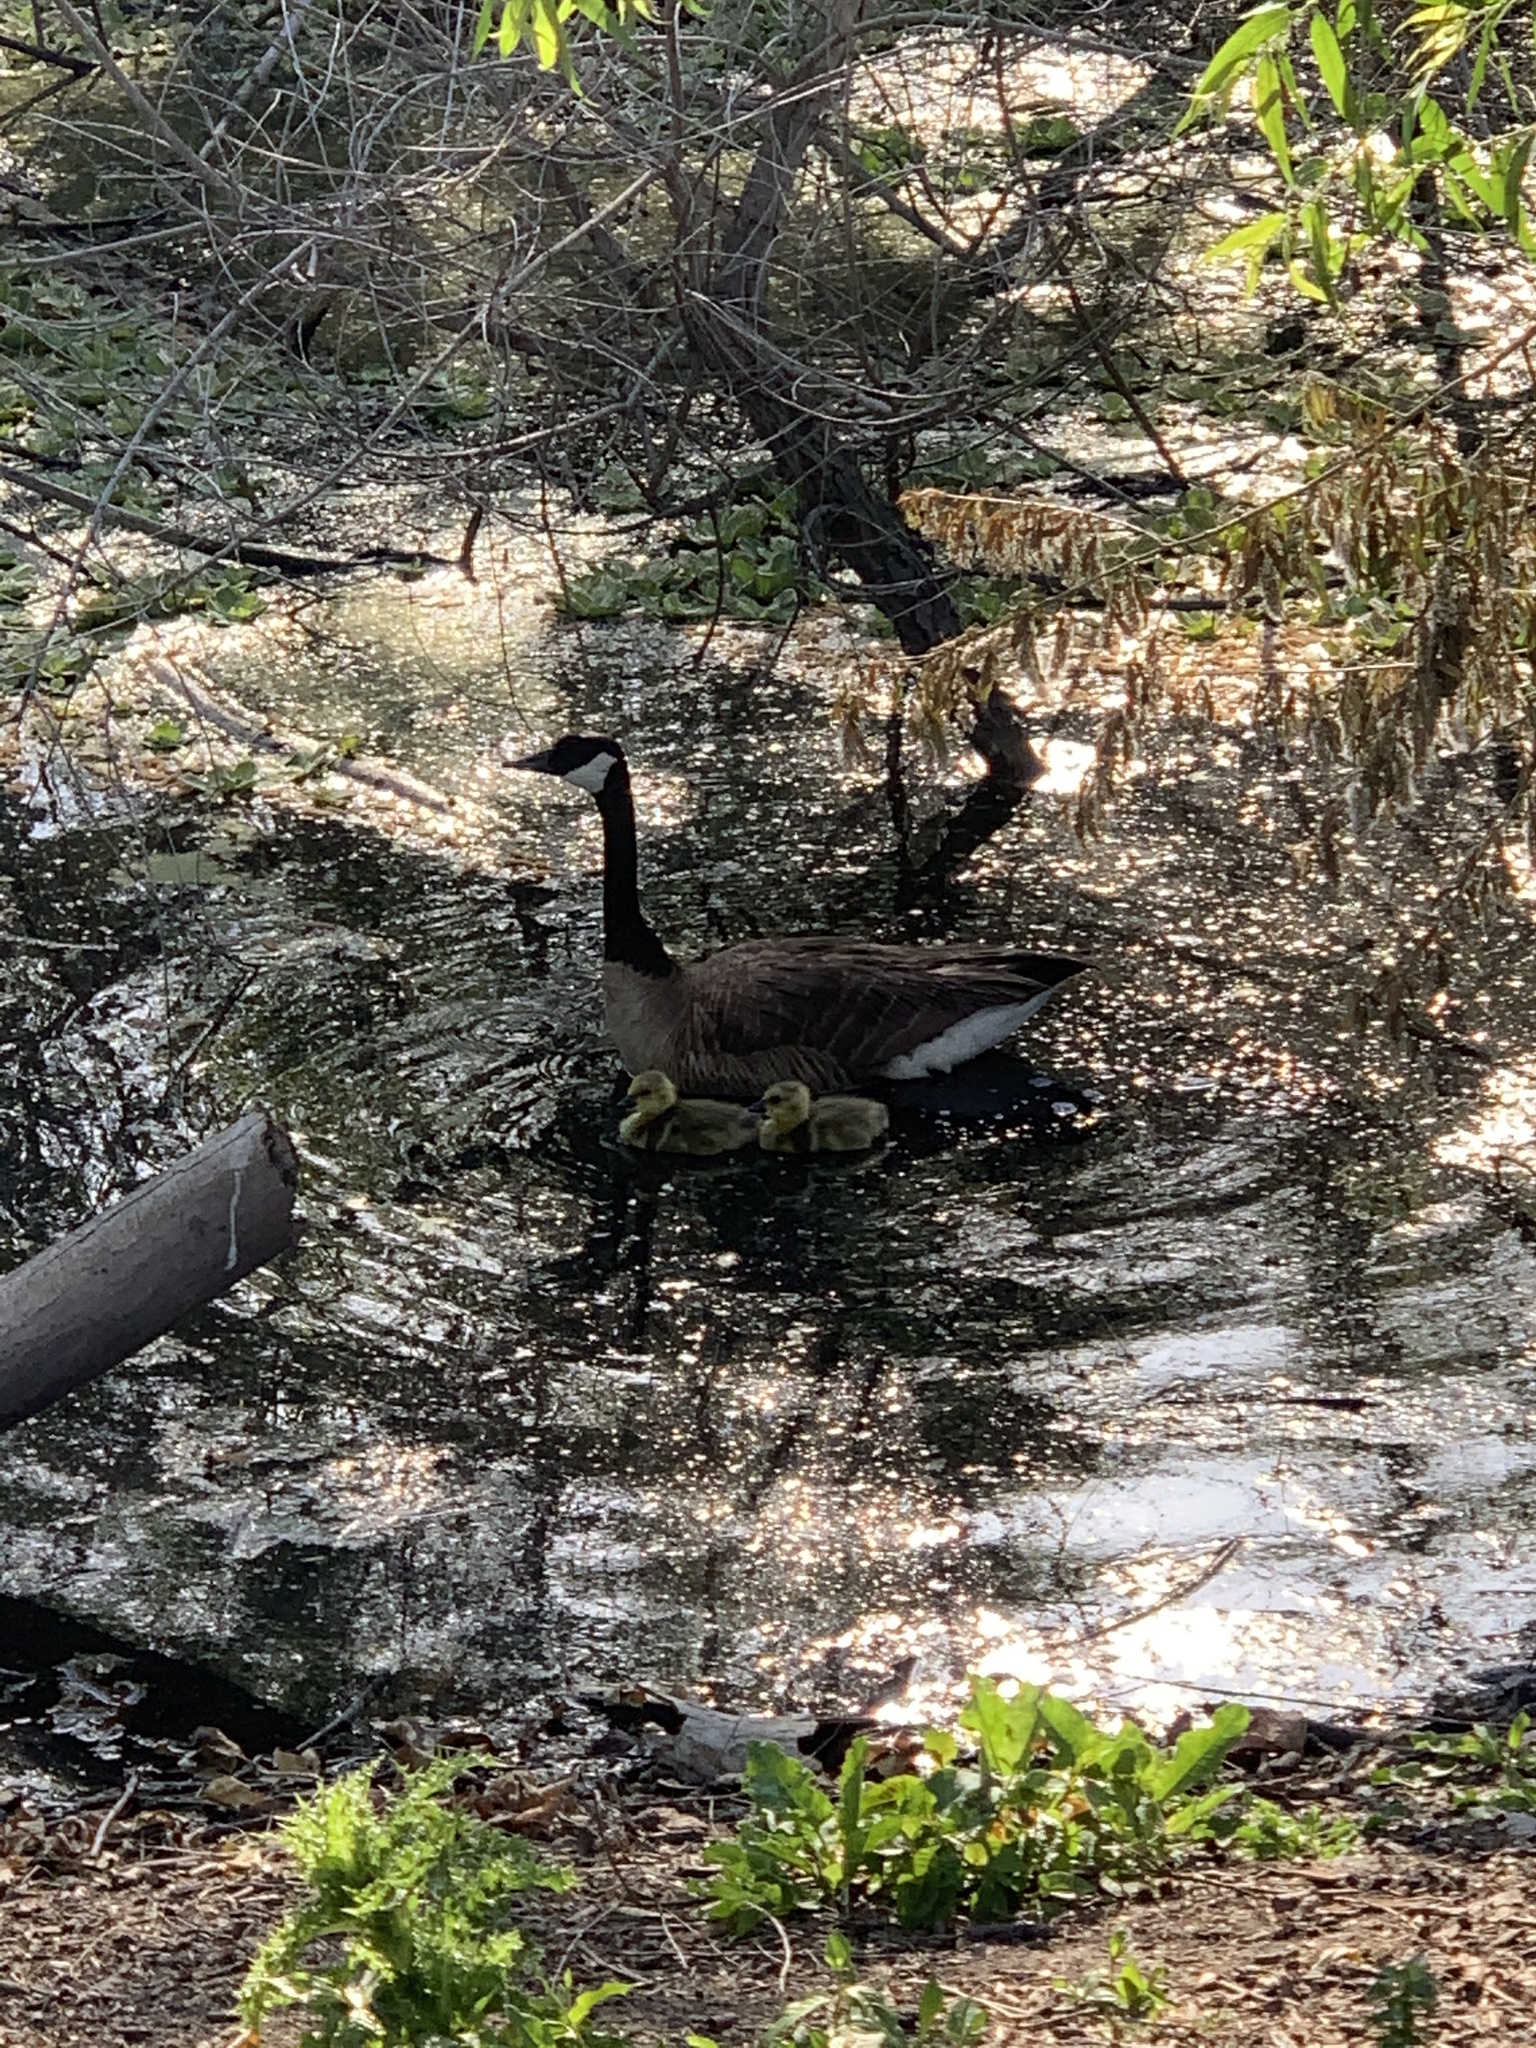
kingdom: Animalia
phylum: Chordata
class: Aves
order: Anseriformes
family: Anatidae
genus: Branta
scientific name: Branta canadensis
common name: Canada goose
